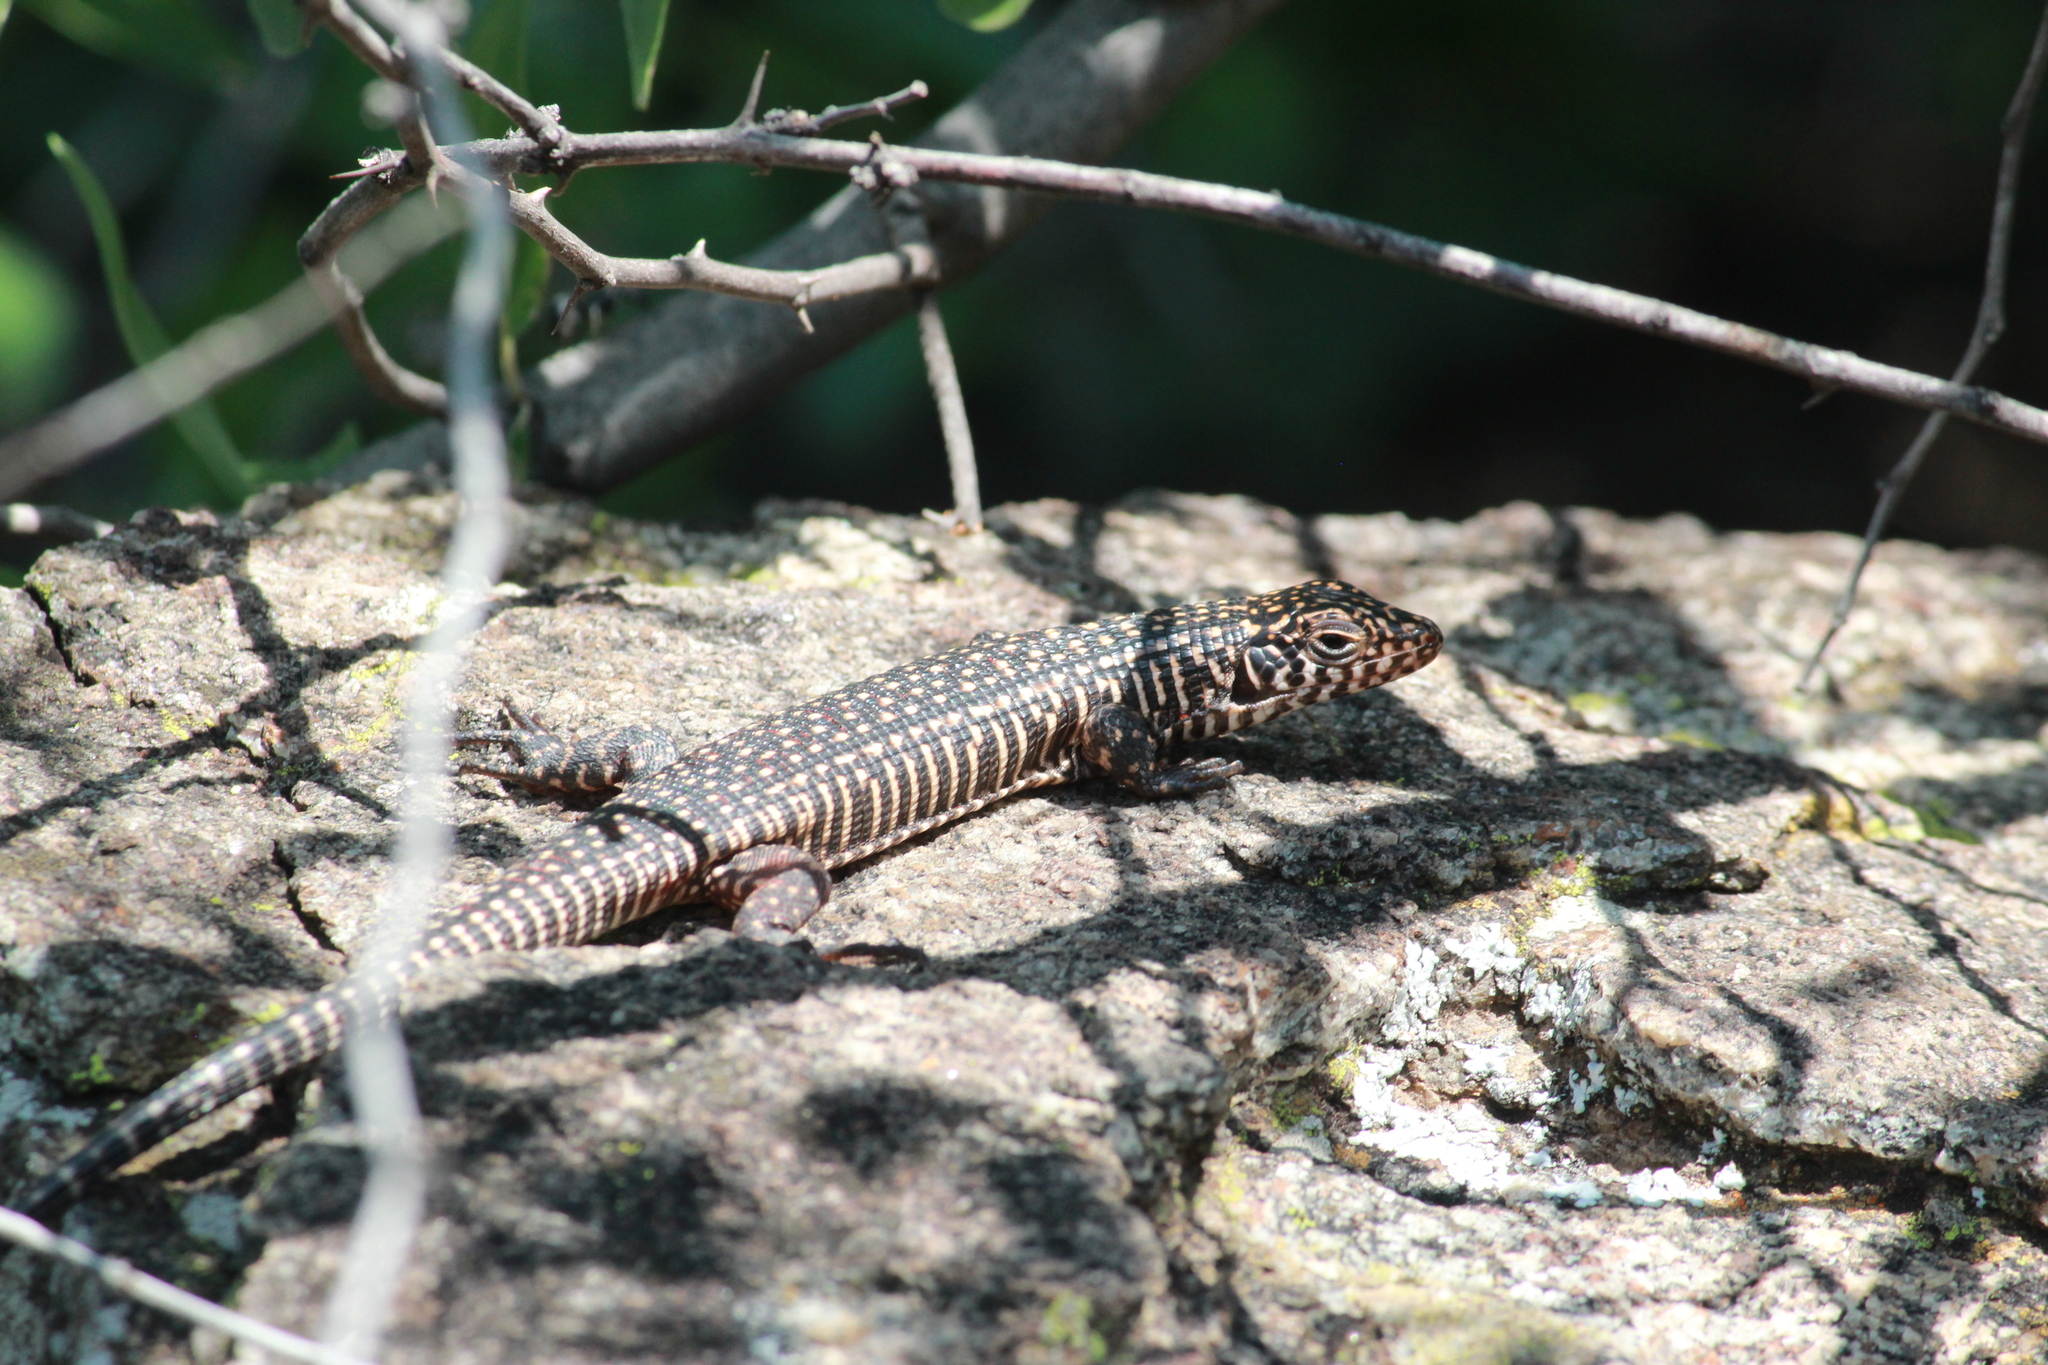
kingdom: Animalia
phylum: Chordata
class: Squamata
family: Gerrhosauridae
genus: Matobosaurus
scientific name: Matobosaurus validus
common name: Common giant plated lizard
